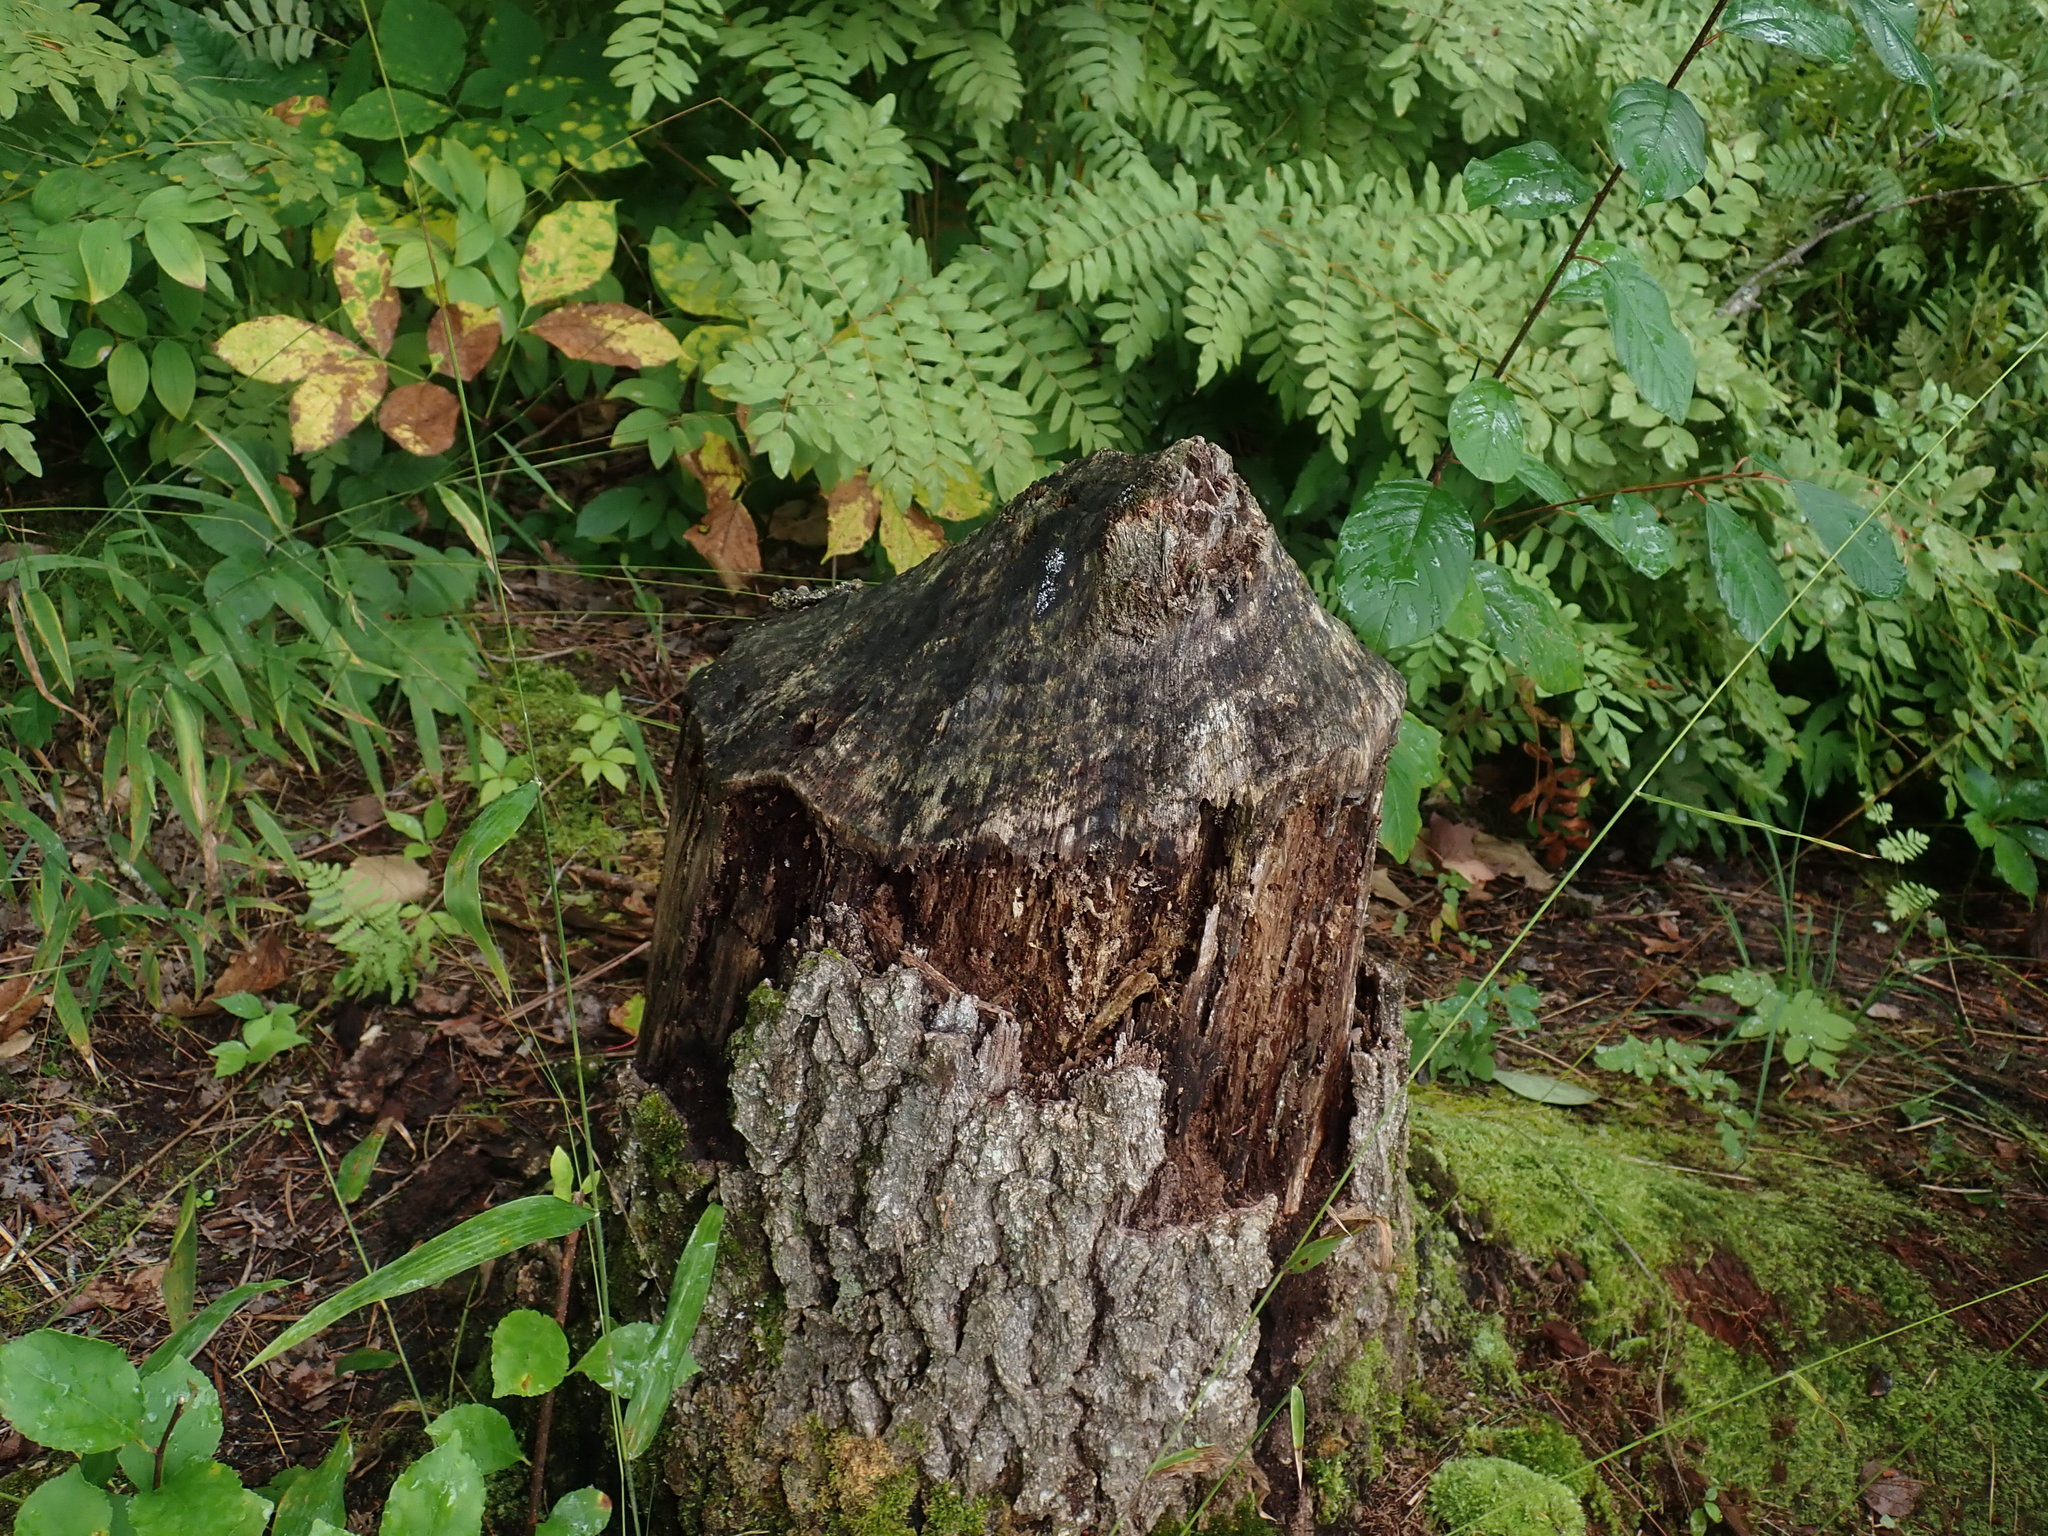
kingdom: Animalia
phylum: Chordata
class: Mammalia
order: Rodentia
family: Castoridae
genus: Castor
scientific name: Castor canadensis
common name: American beaver
